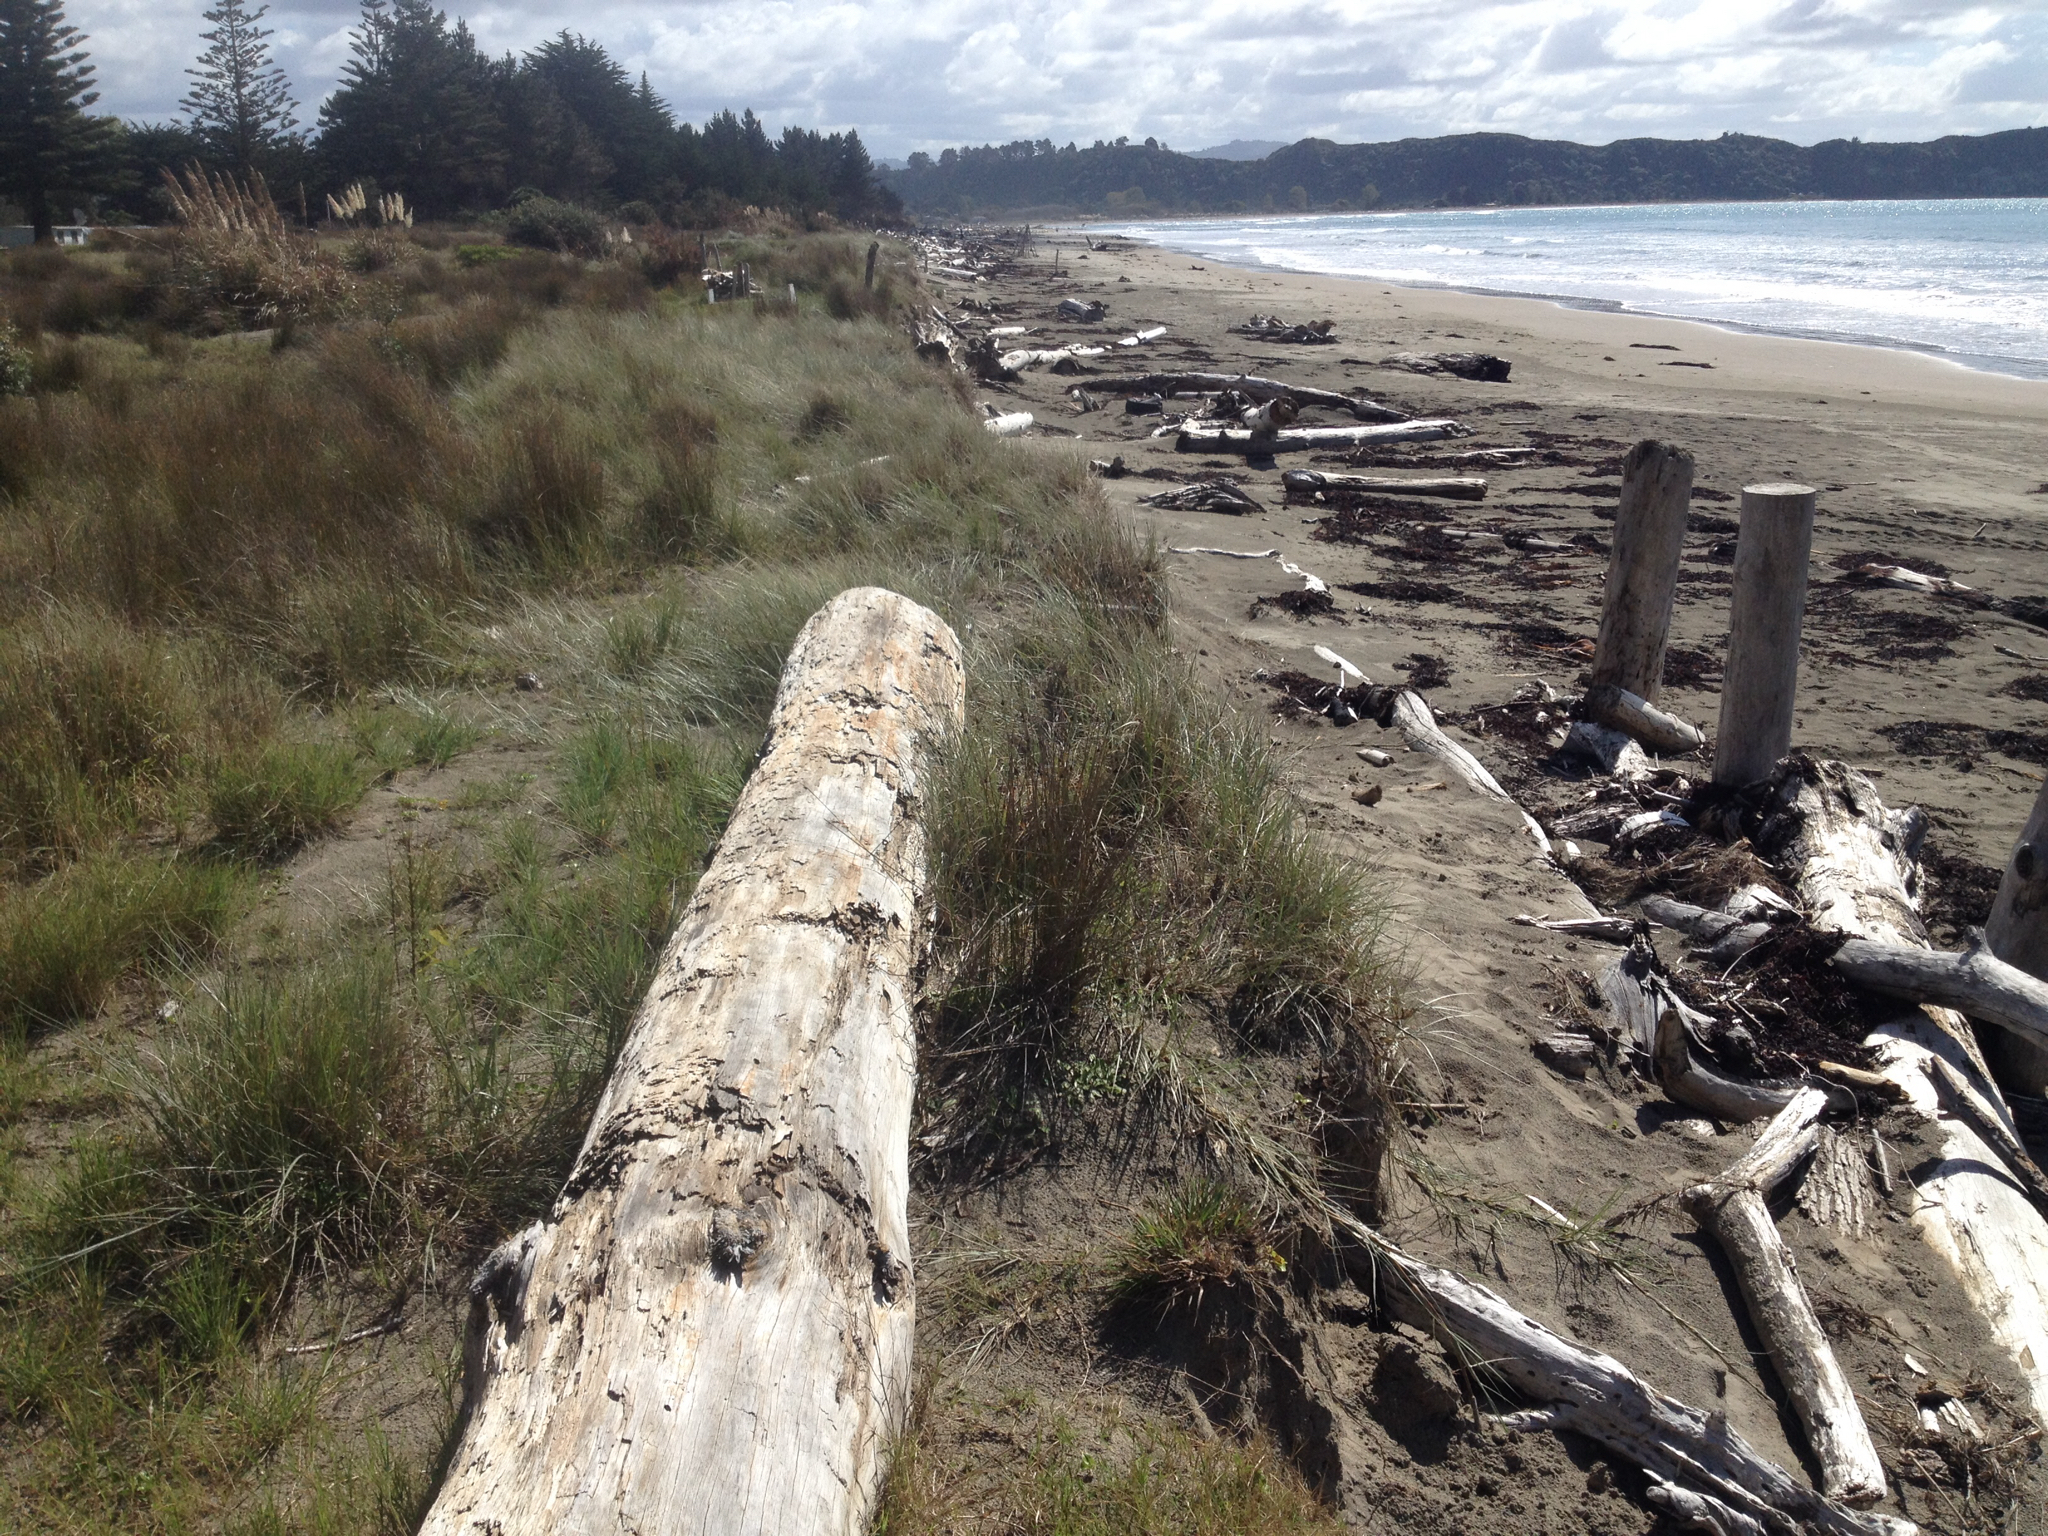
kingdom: Plantae
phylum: Tracheophyta
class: Liliopsida
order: Poales
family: Poaceae
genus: Spinifex
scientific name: Spinifex sericeus
